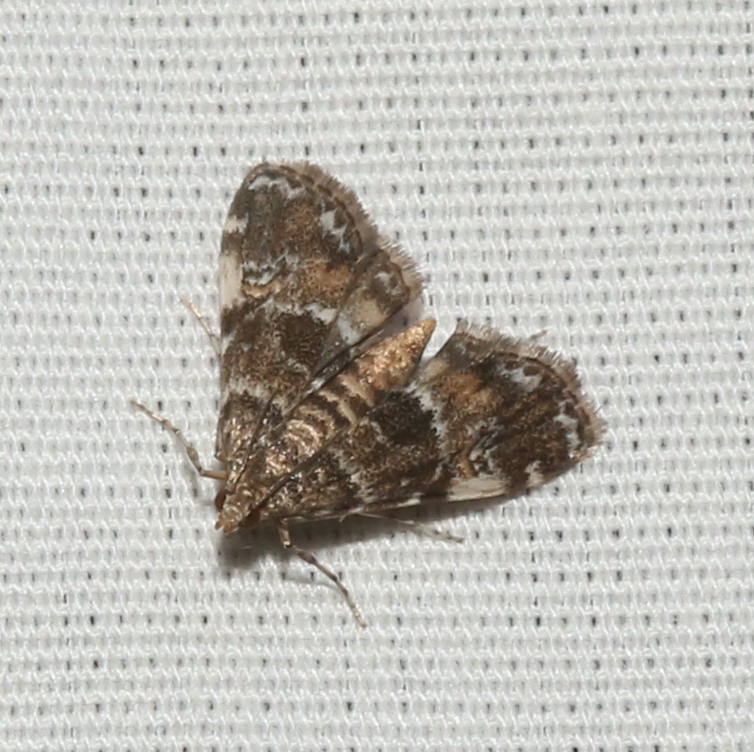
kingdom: Animalia
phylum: Arthropoda
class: Insecta
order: Lepidoptera
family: Crambidae
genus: Elophila
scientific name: Elophila obliteralis
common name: Waterlily leafcutter moth
